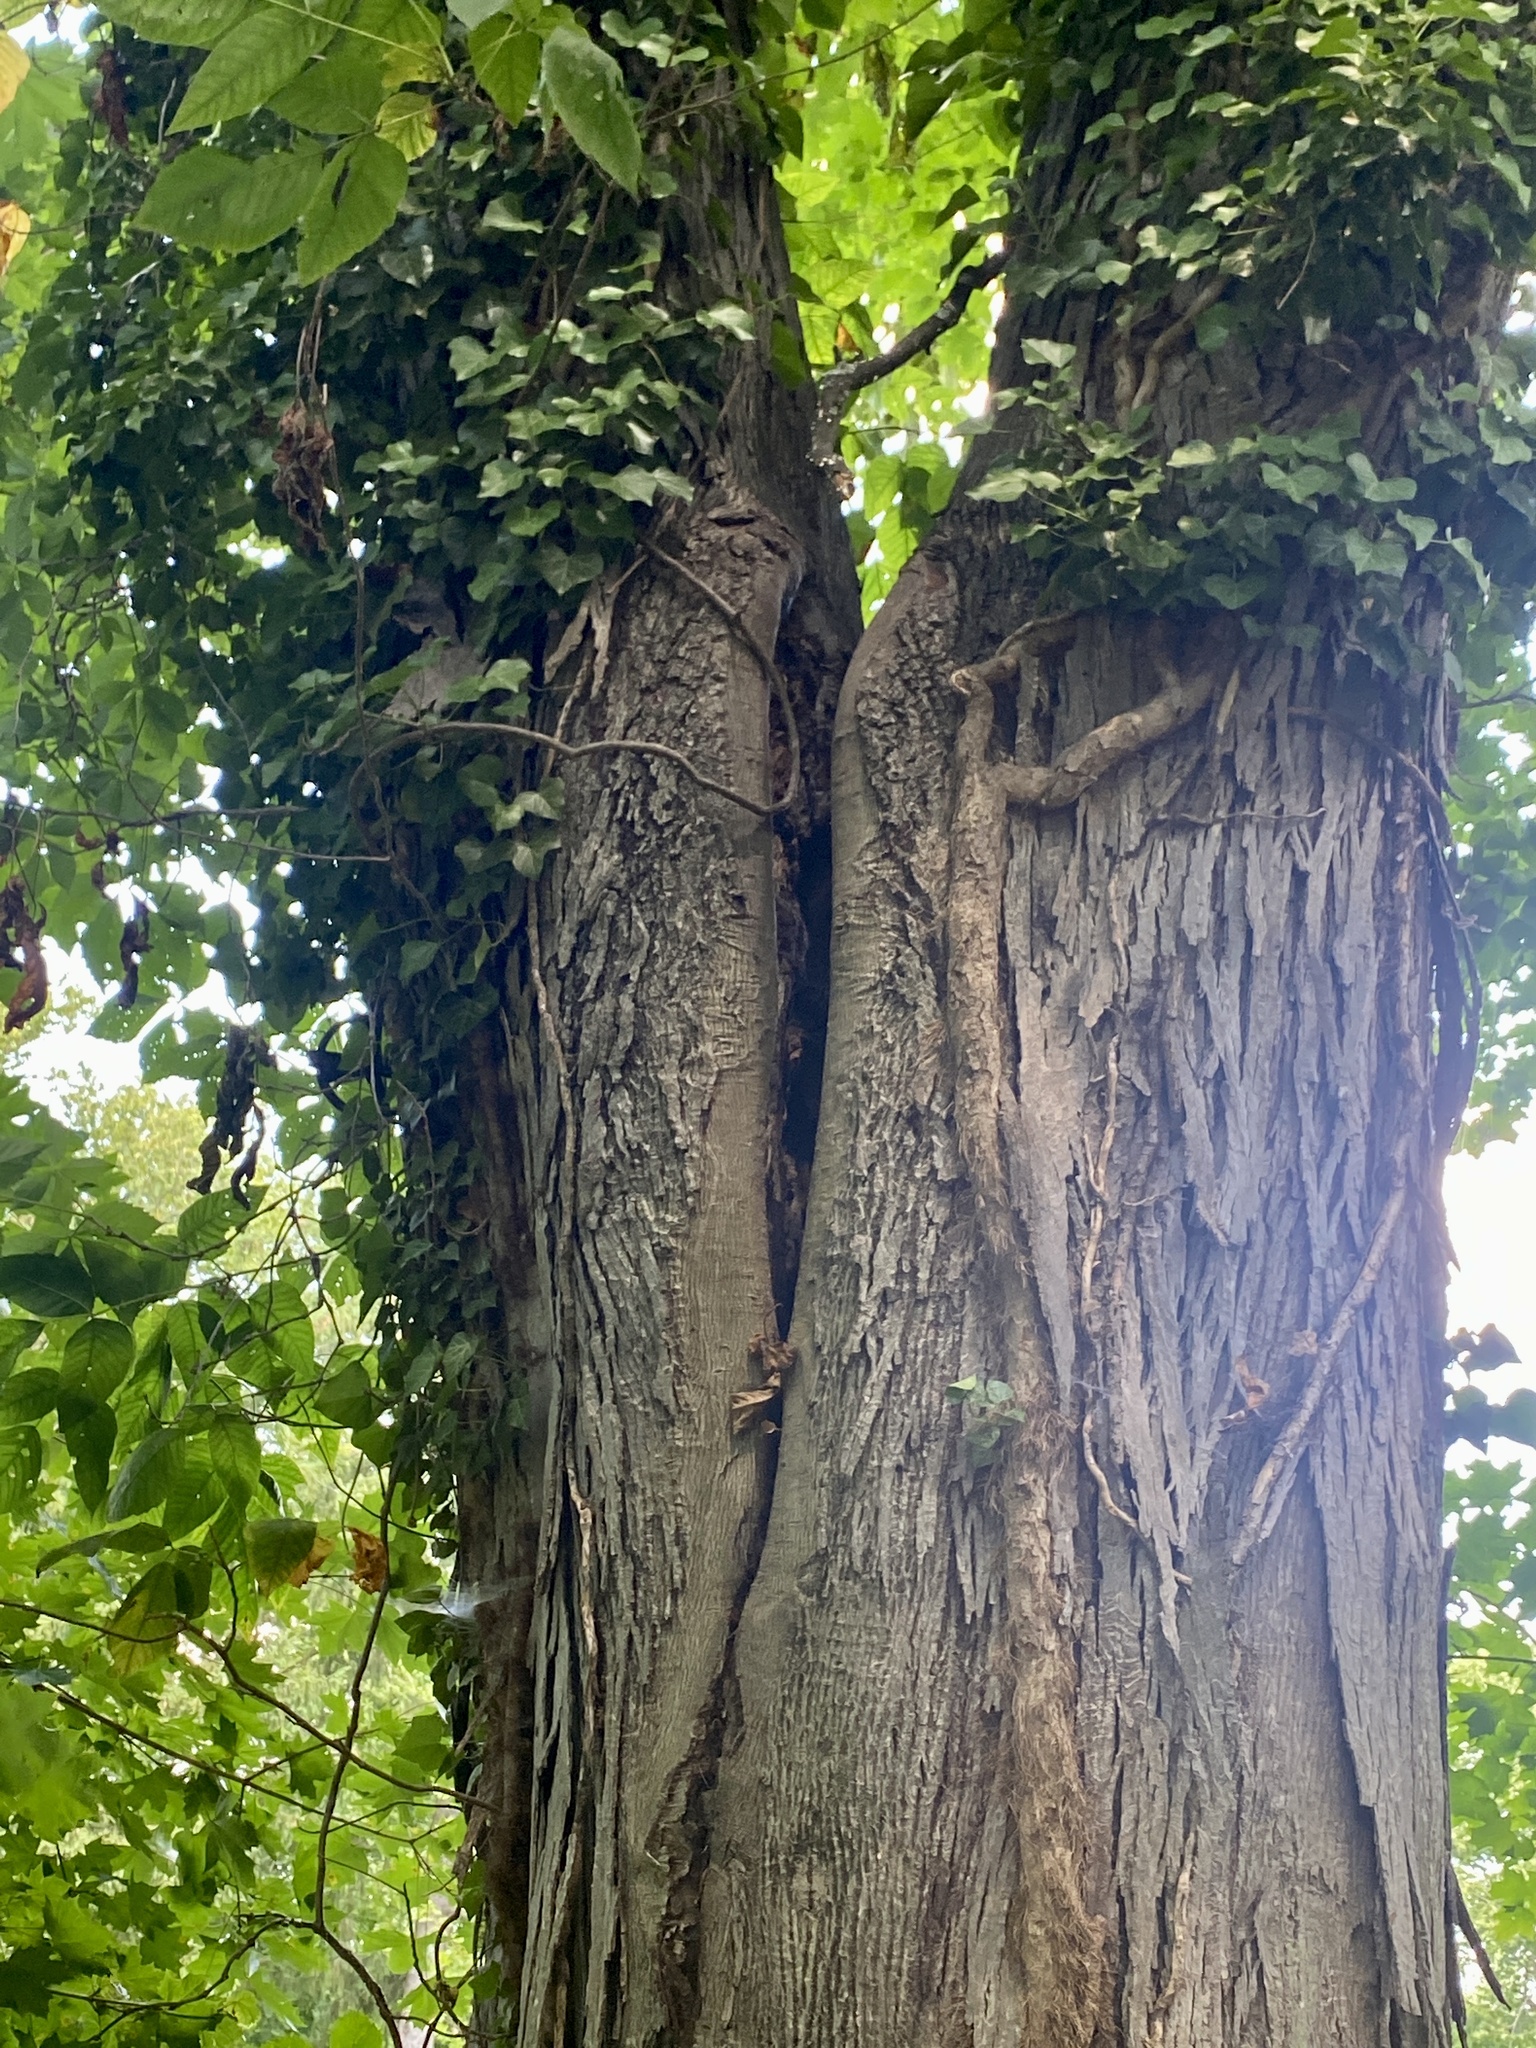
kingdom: Plantae
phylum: Tracheophyta
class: Magnoliopsida
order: Fagales
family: Juglandaceae
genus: Carya
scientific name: Carya ovata
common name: Shagbark hickory
